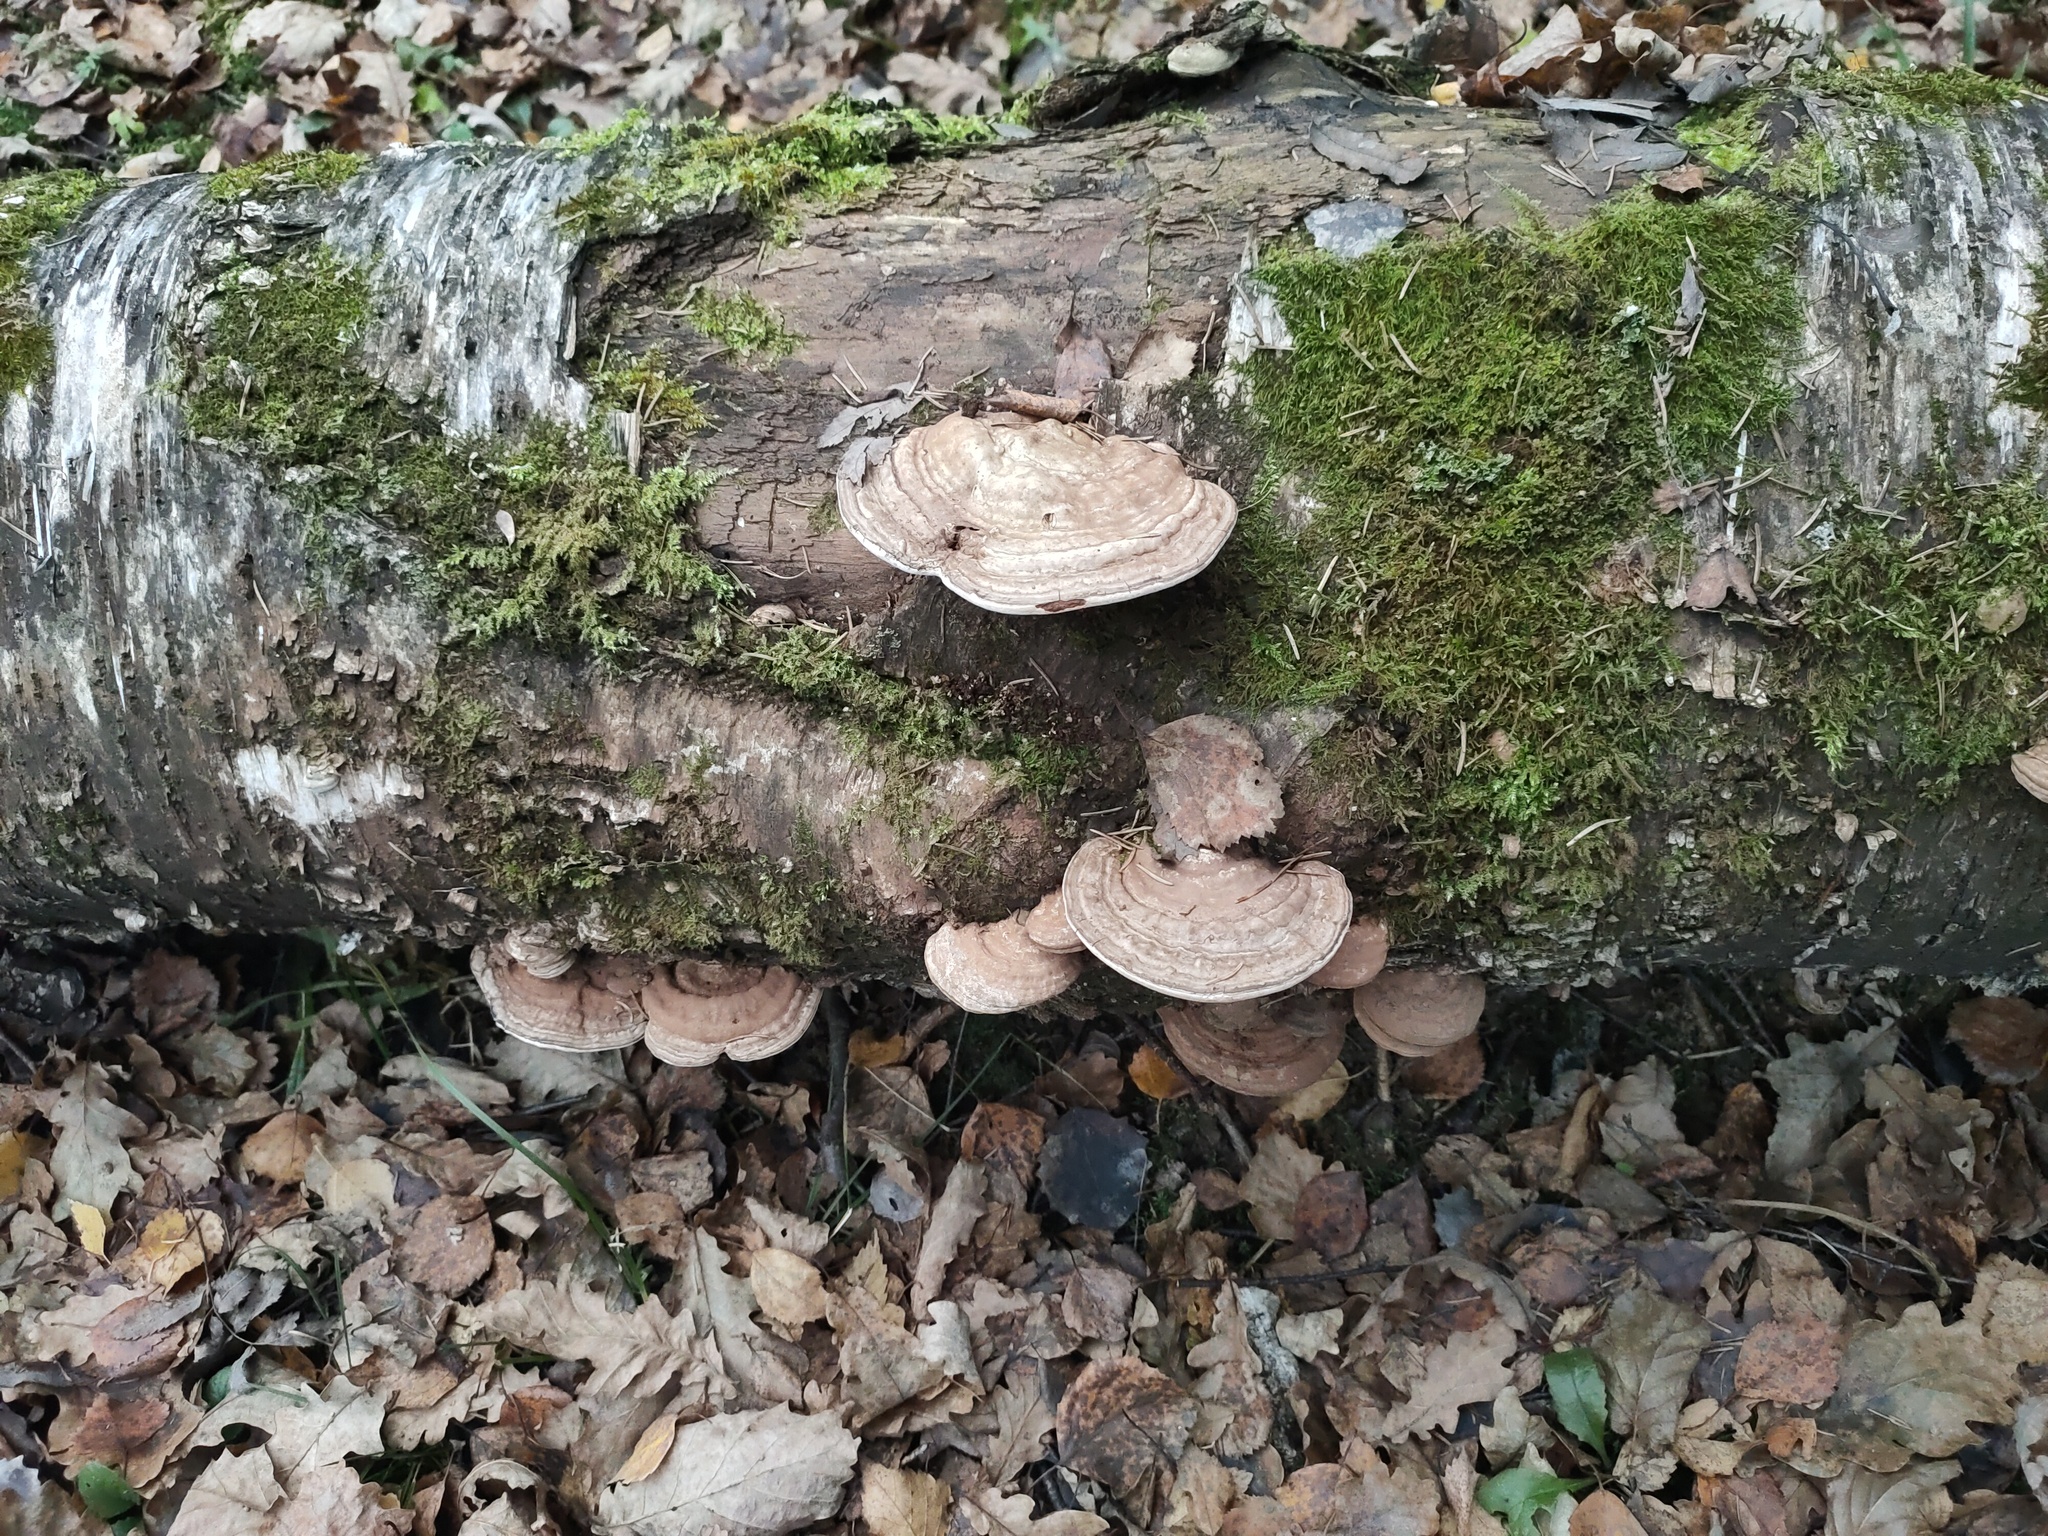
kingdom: Fungi
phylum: Basidiomycota
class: Agaricomycetes
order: Polyporales
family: Polyporaceae
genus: Ganoderma
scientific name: Ganoderma applanatum
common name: Artist's bracket
